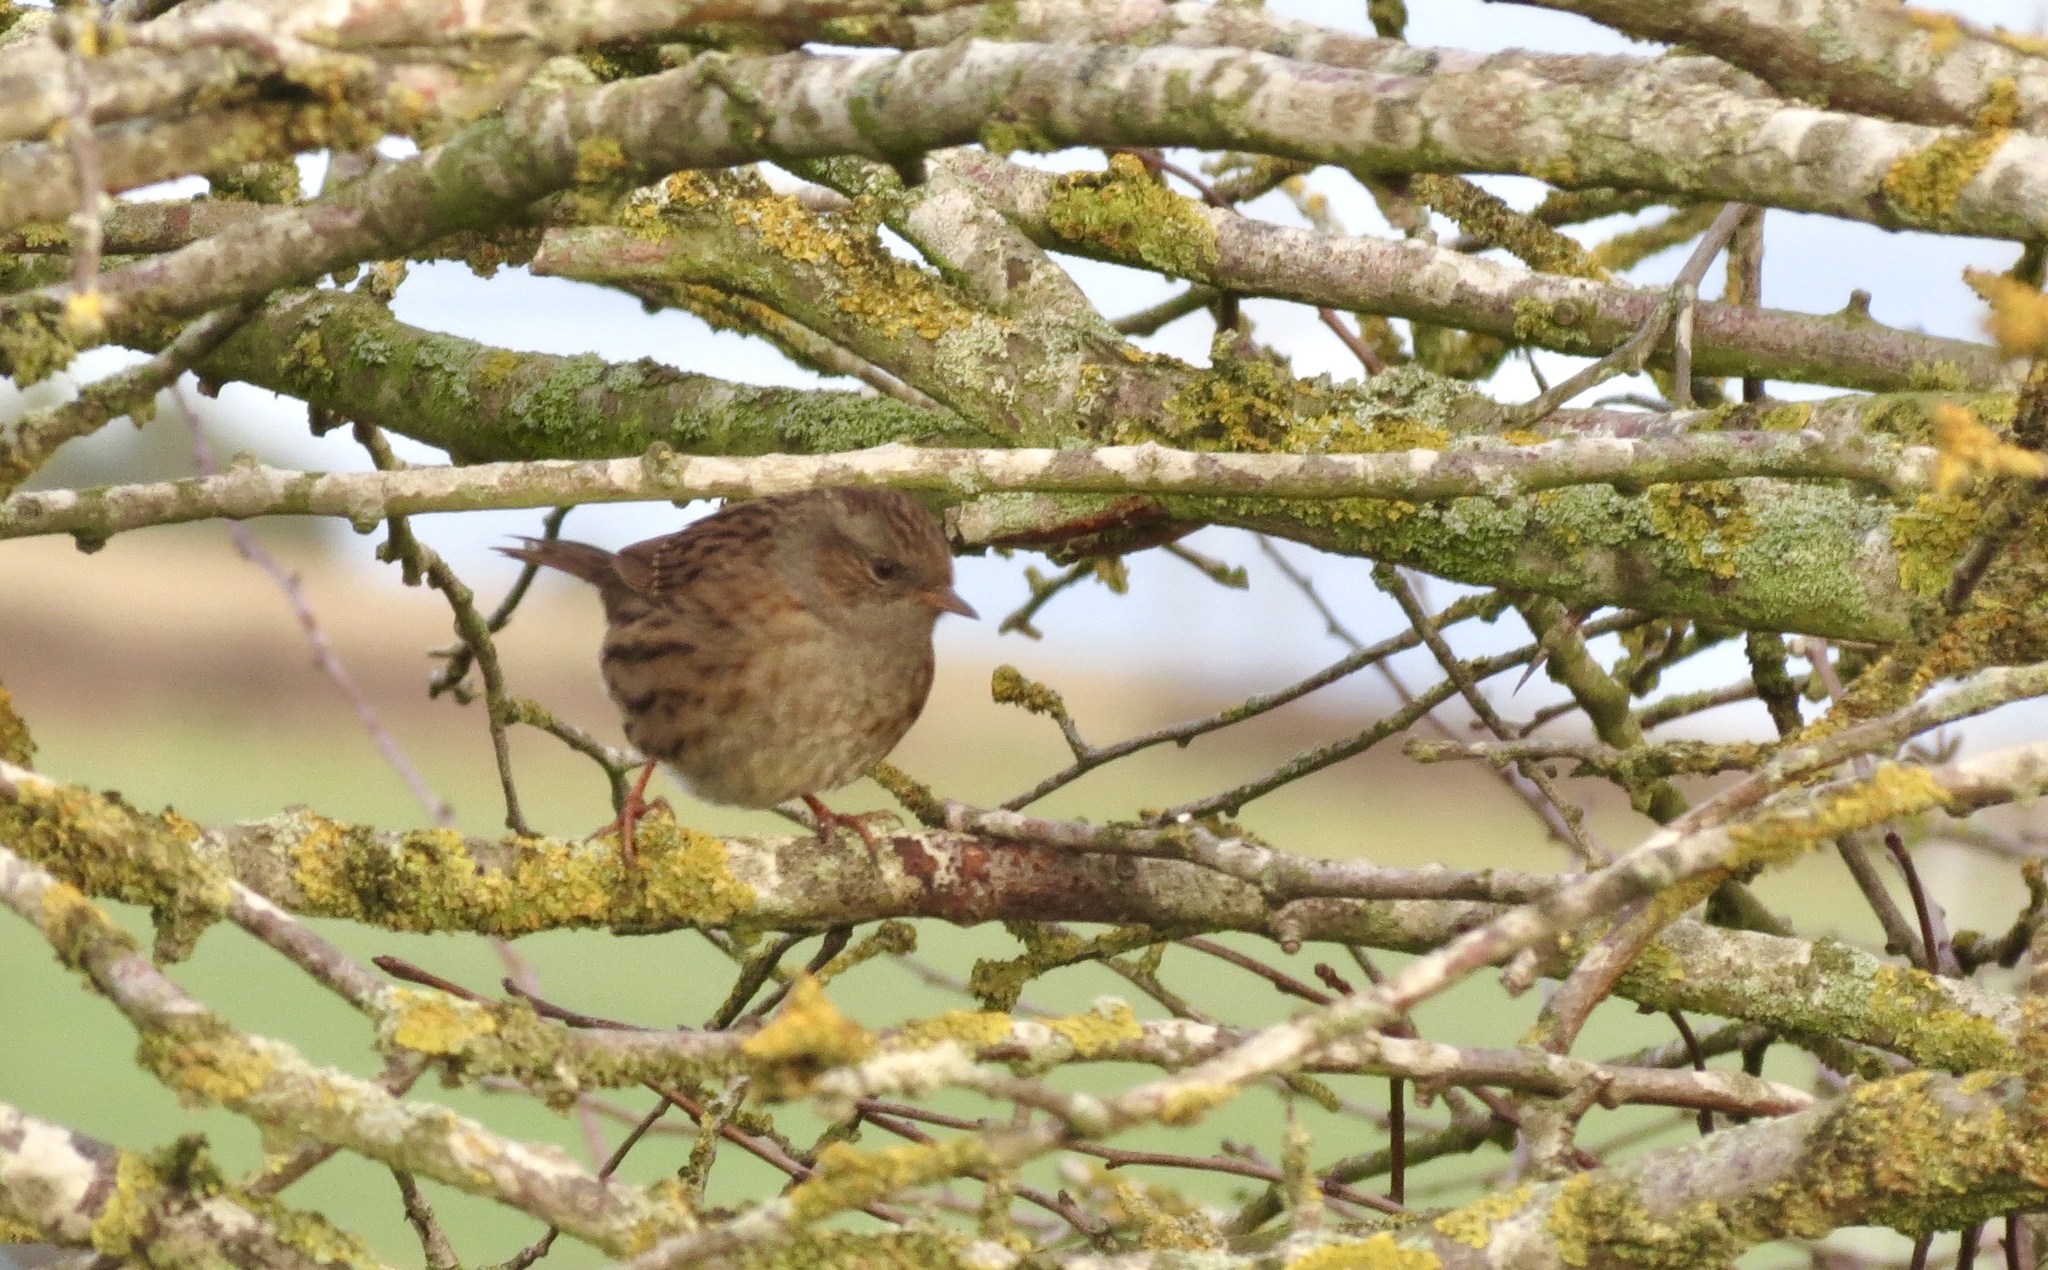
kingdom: Animalia
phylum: Chordata
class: Aves
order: Passeriformes
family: Prunellidae
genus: Prunella
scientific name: Prunella modularis
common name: Dunnock
